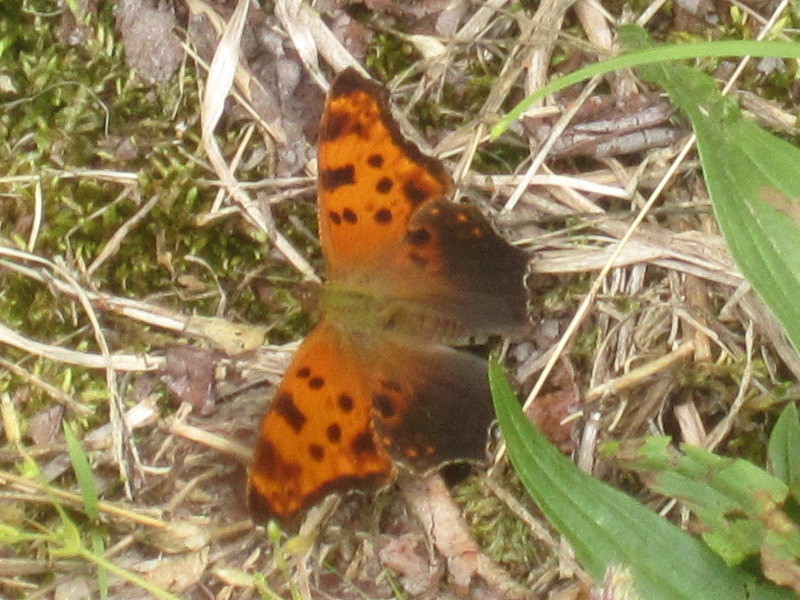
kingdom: Animalia
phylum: Arthropoda
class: Insecta
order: Lepidoptera
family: Nymphalidae
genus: Polygonia
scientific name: Polygonia comma
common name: Eastern comma
